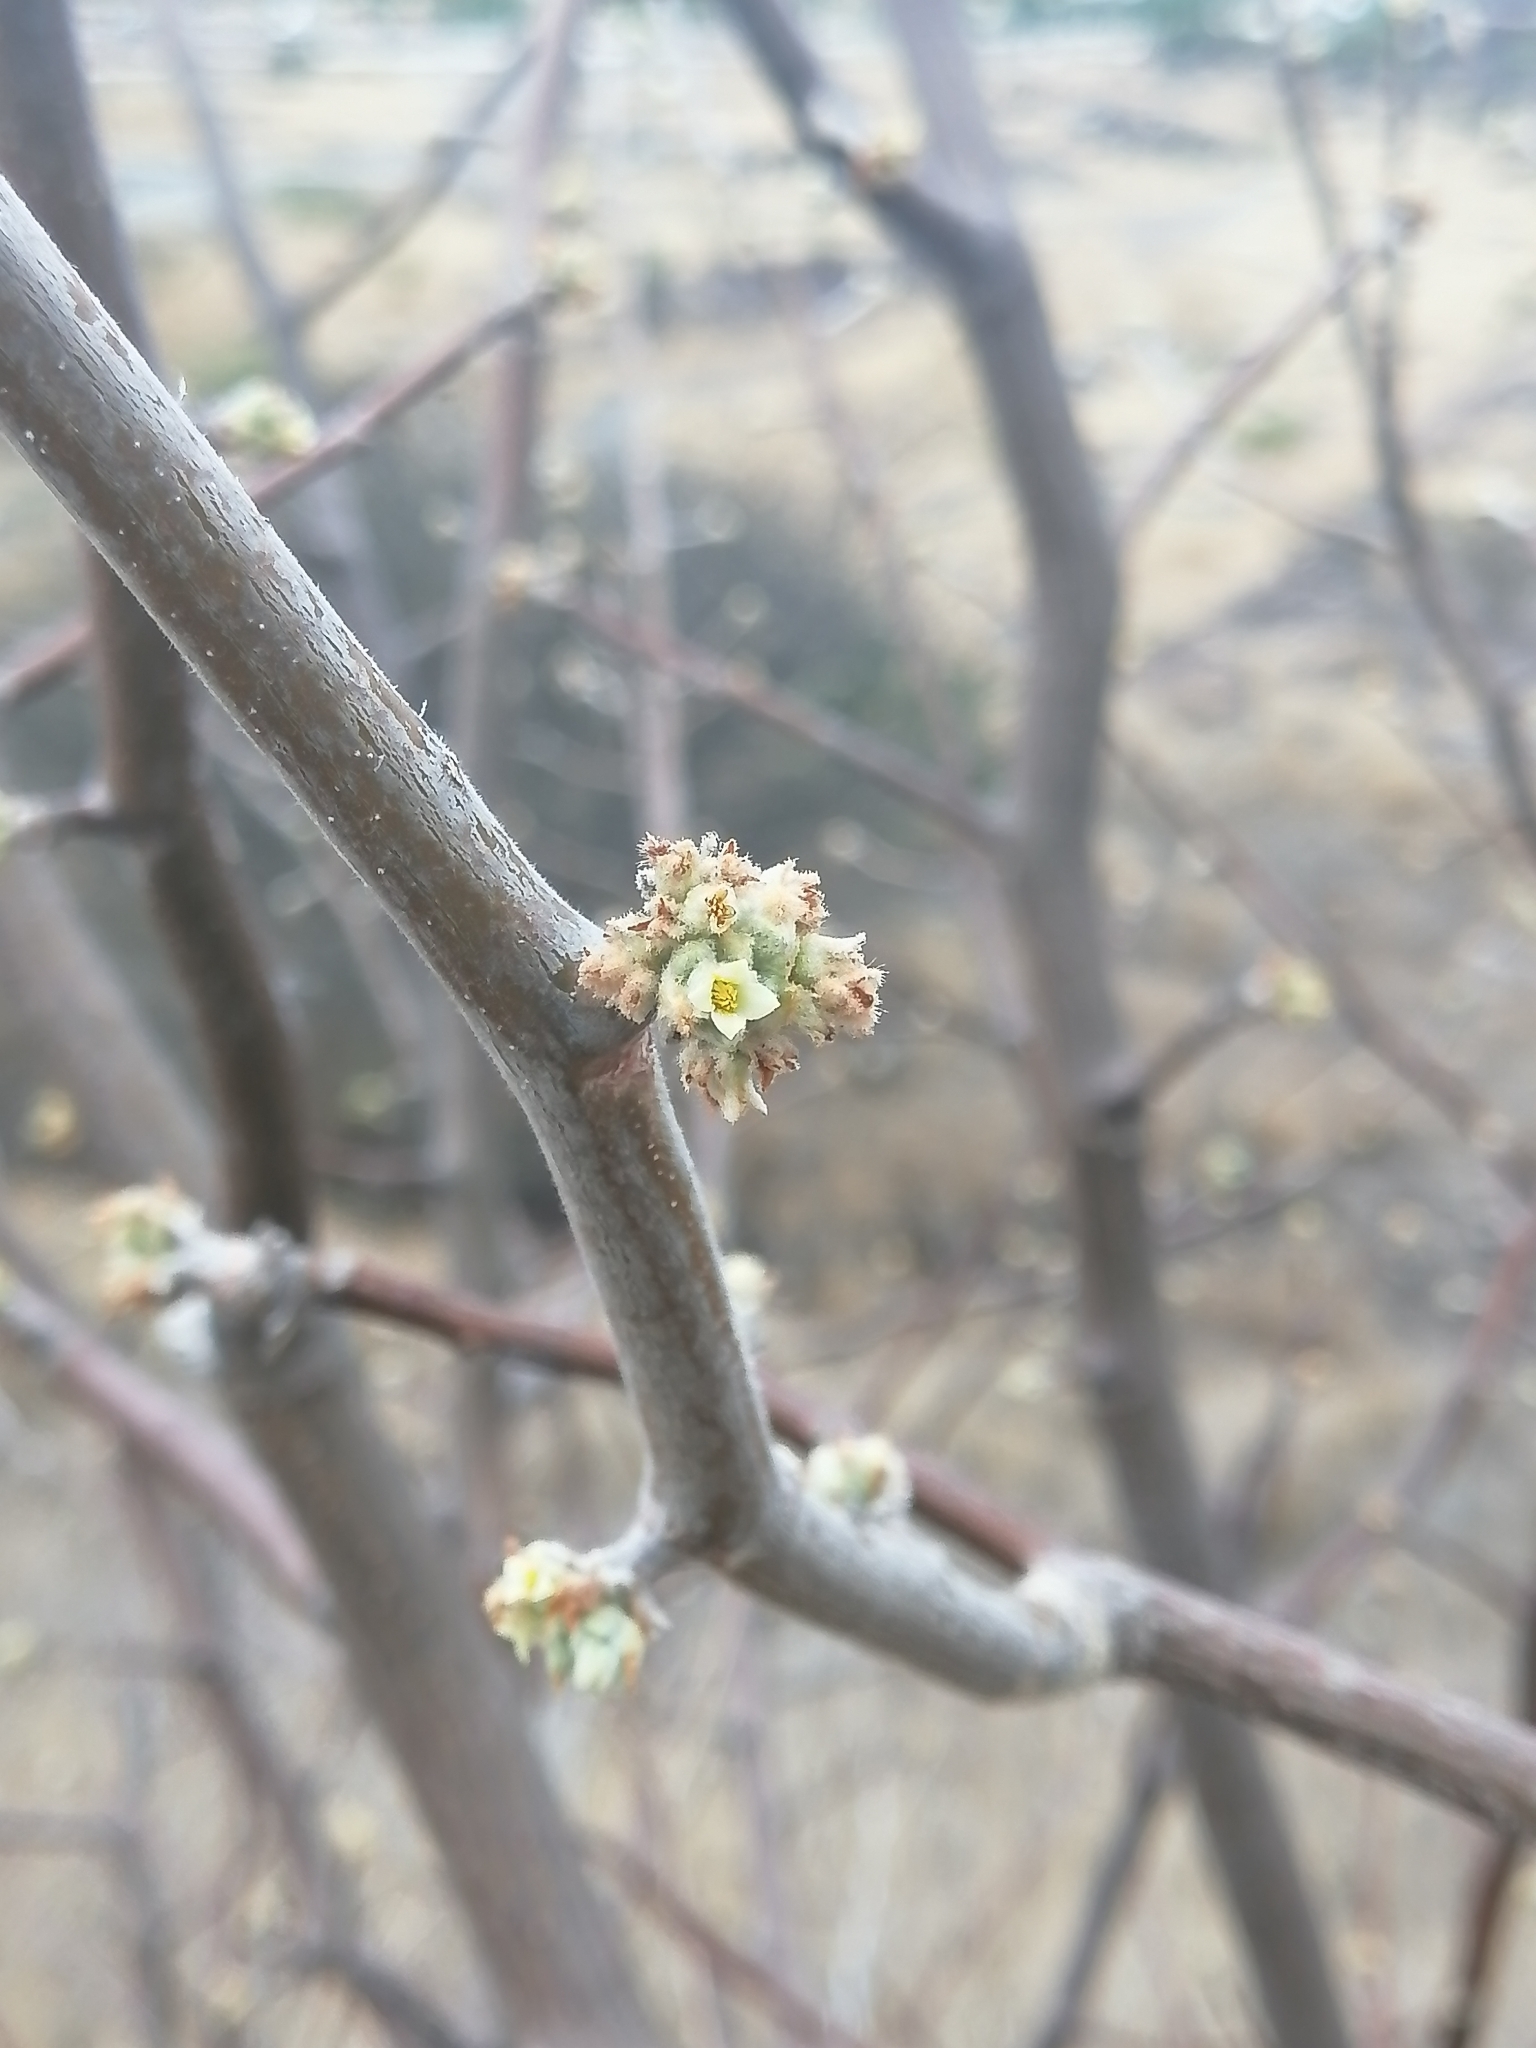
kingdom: Plantae
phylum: Tracheophyta
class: Magnoliopsida
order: Sapindales
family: Burseraceae
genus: Bursera
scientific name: Bursera palmeri
